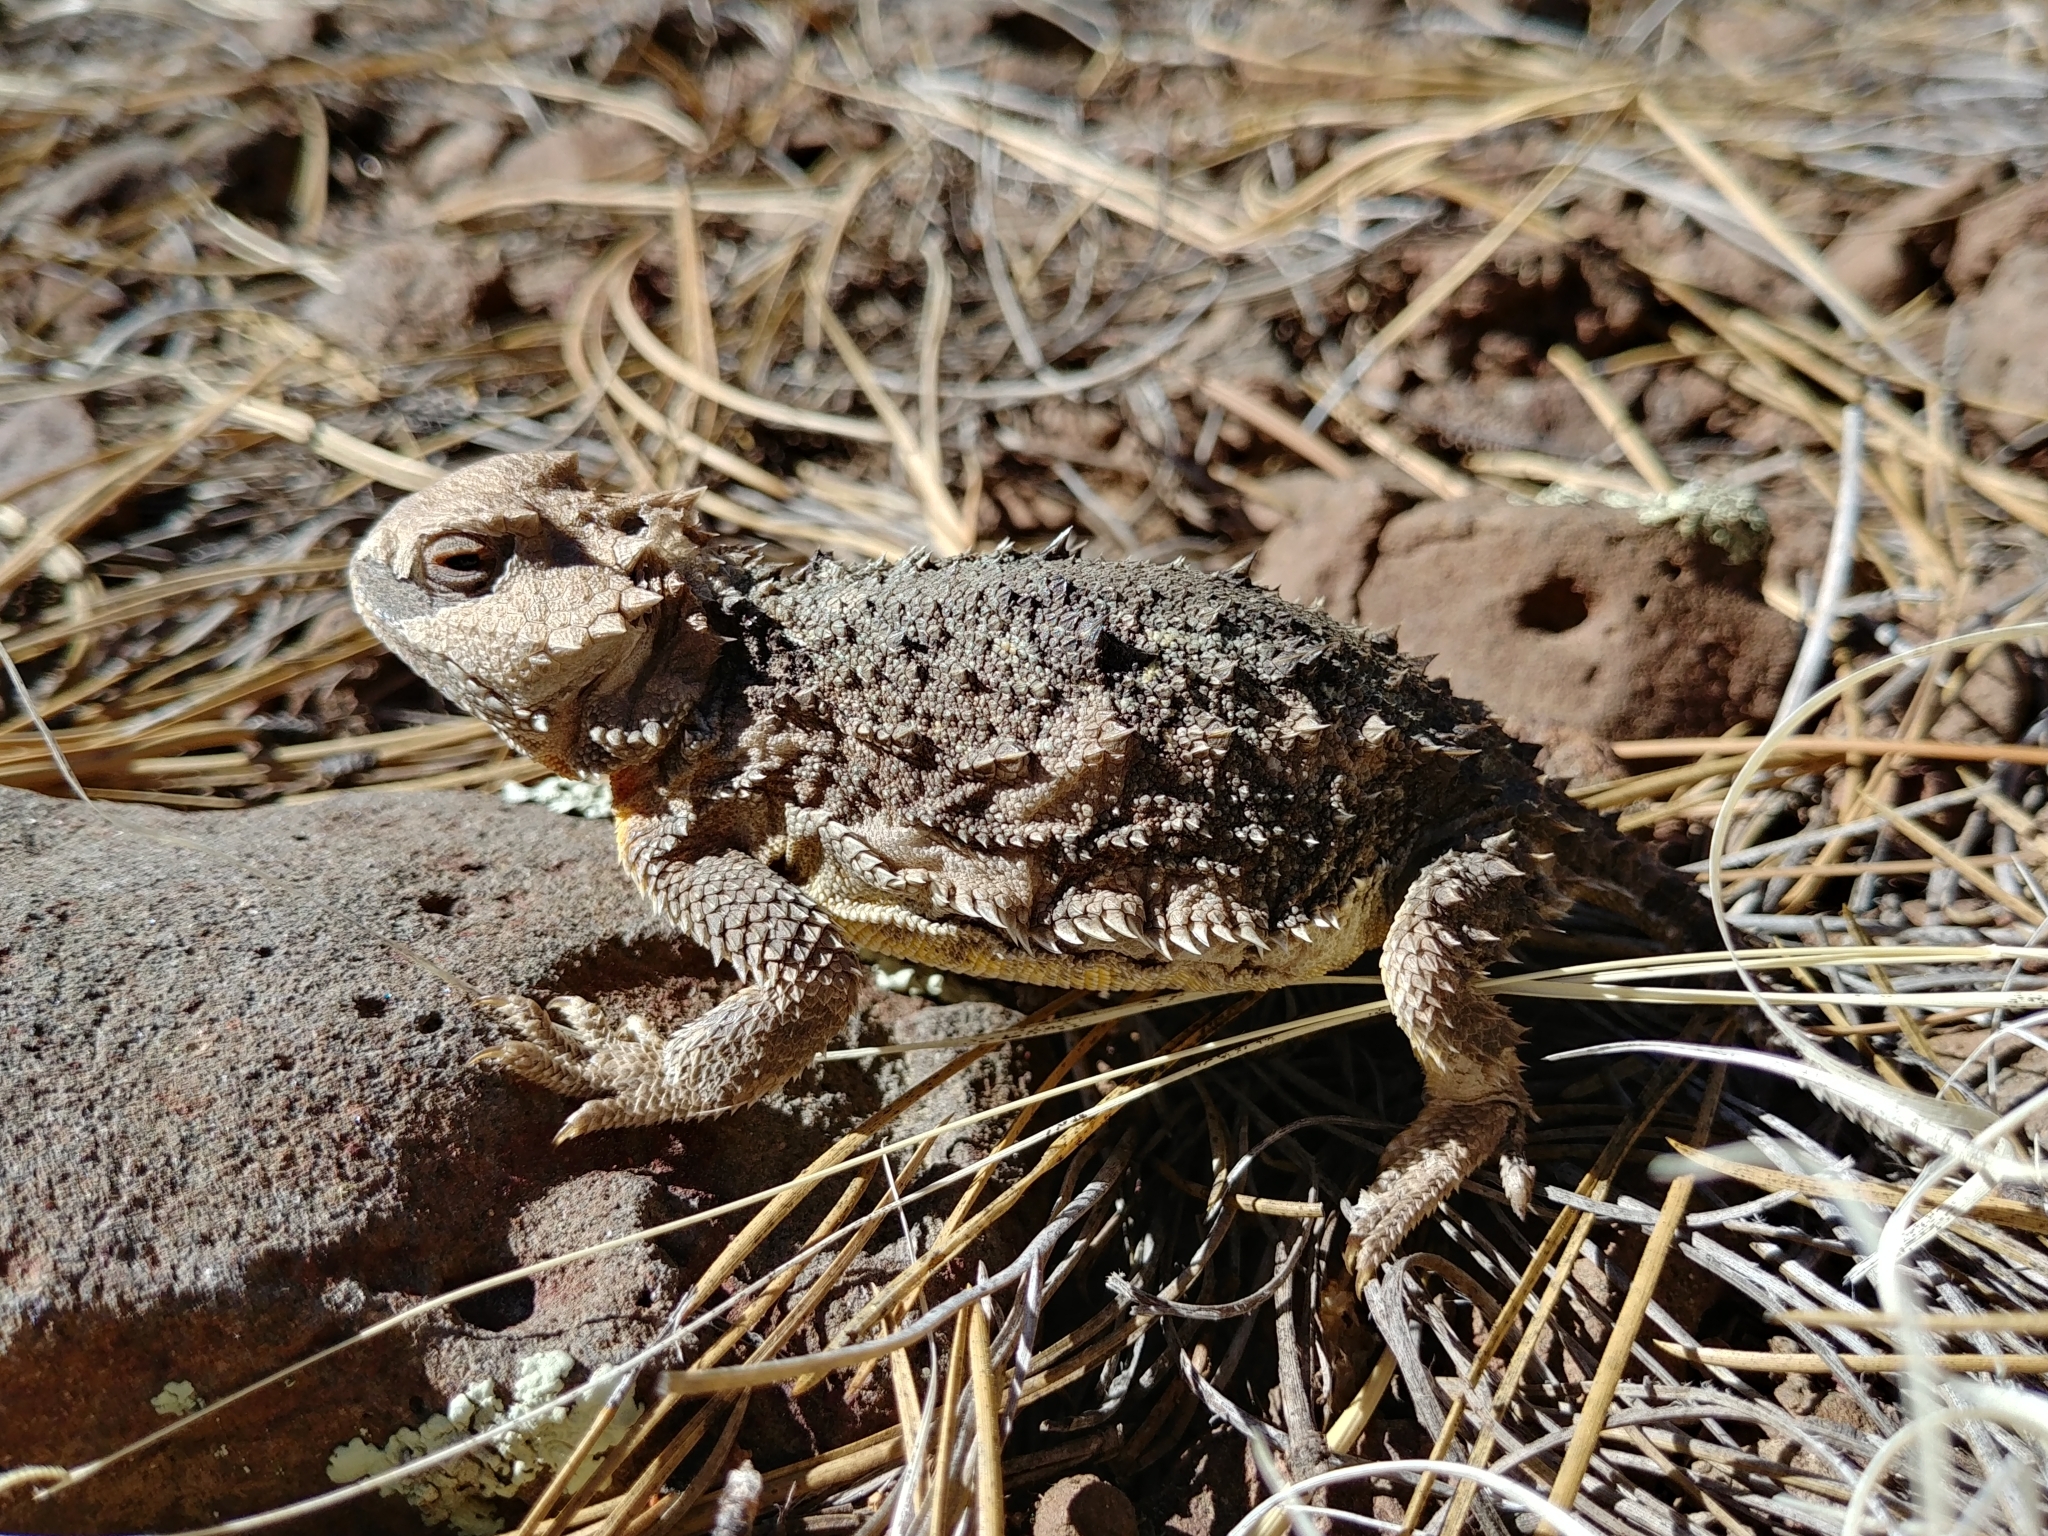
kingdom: Animalia
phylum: Chordata
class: Squamata
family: Phrynosomatidae
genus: Phrynosoma
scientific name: Phrynosoma hernandesi
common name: Greater short-horned lizard
